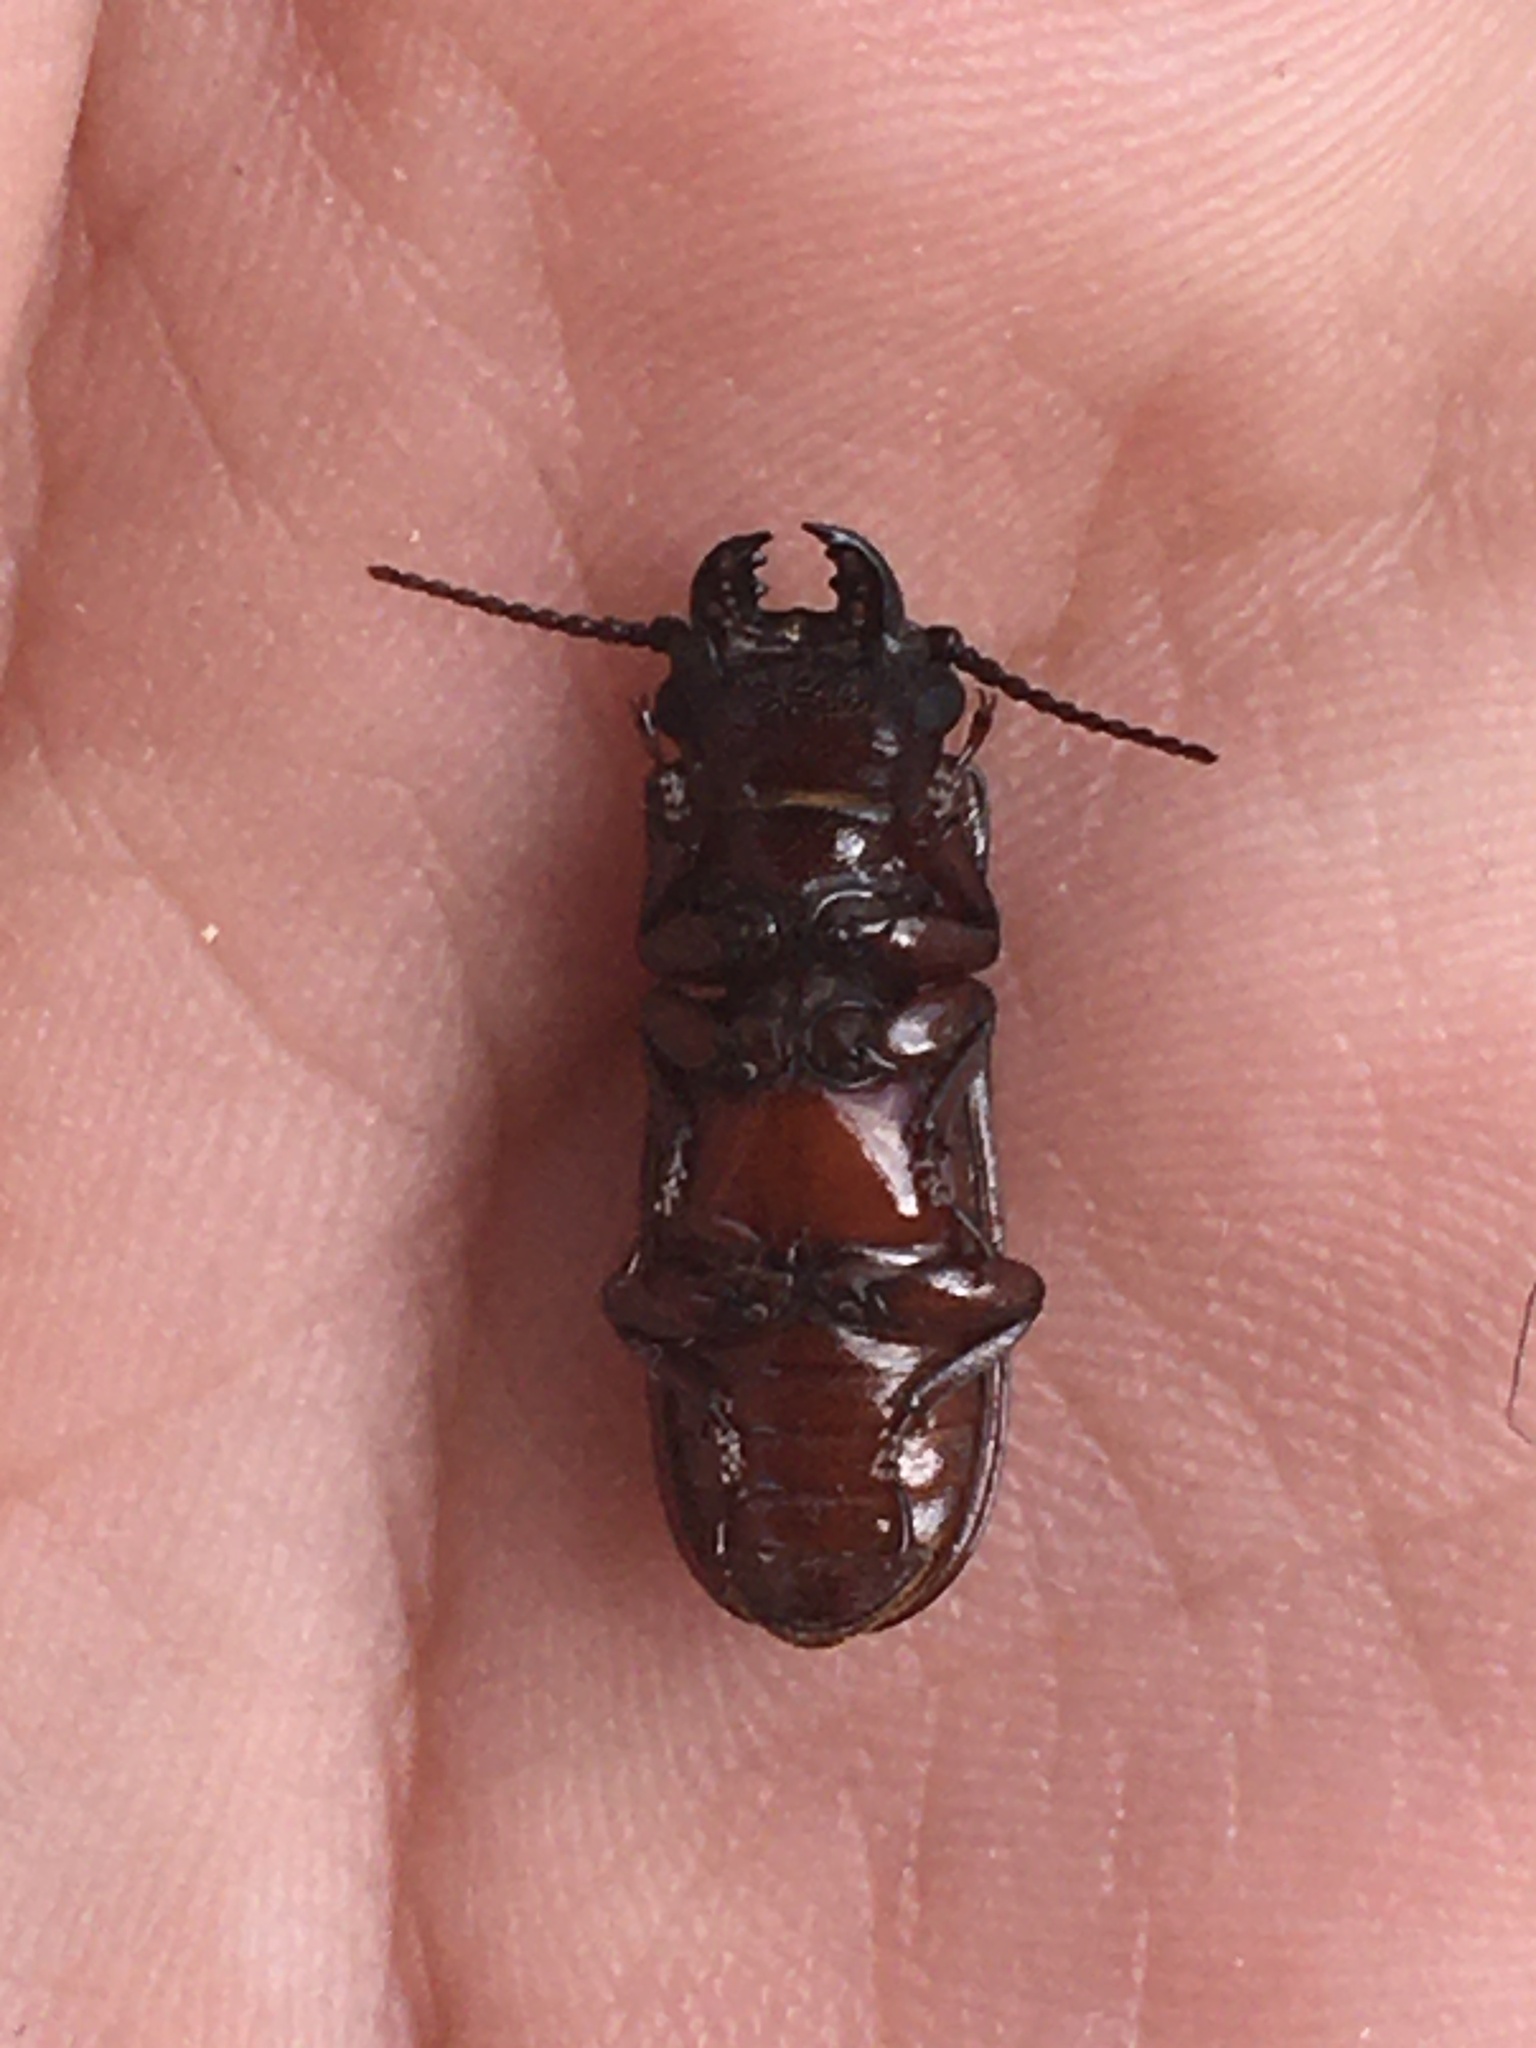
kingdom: Animalia
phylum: Arthropoda
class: Insecta
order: Coleoptera
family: Cerambycidae
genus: Neandra
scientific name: Neandra brunnea
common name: Pole borer
